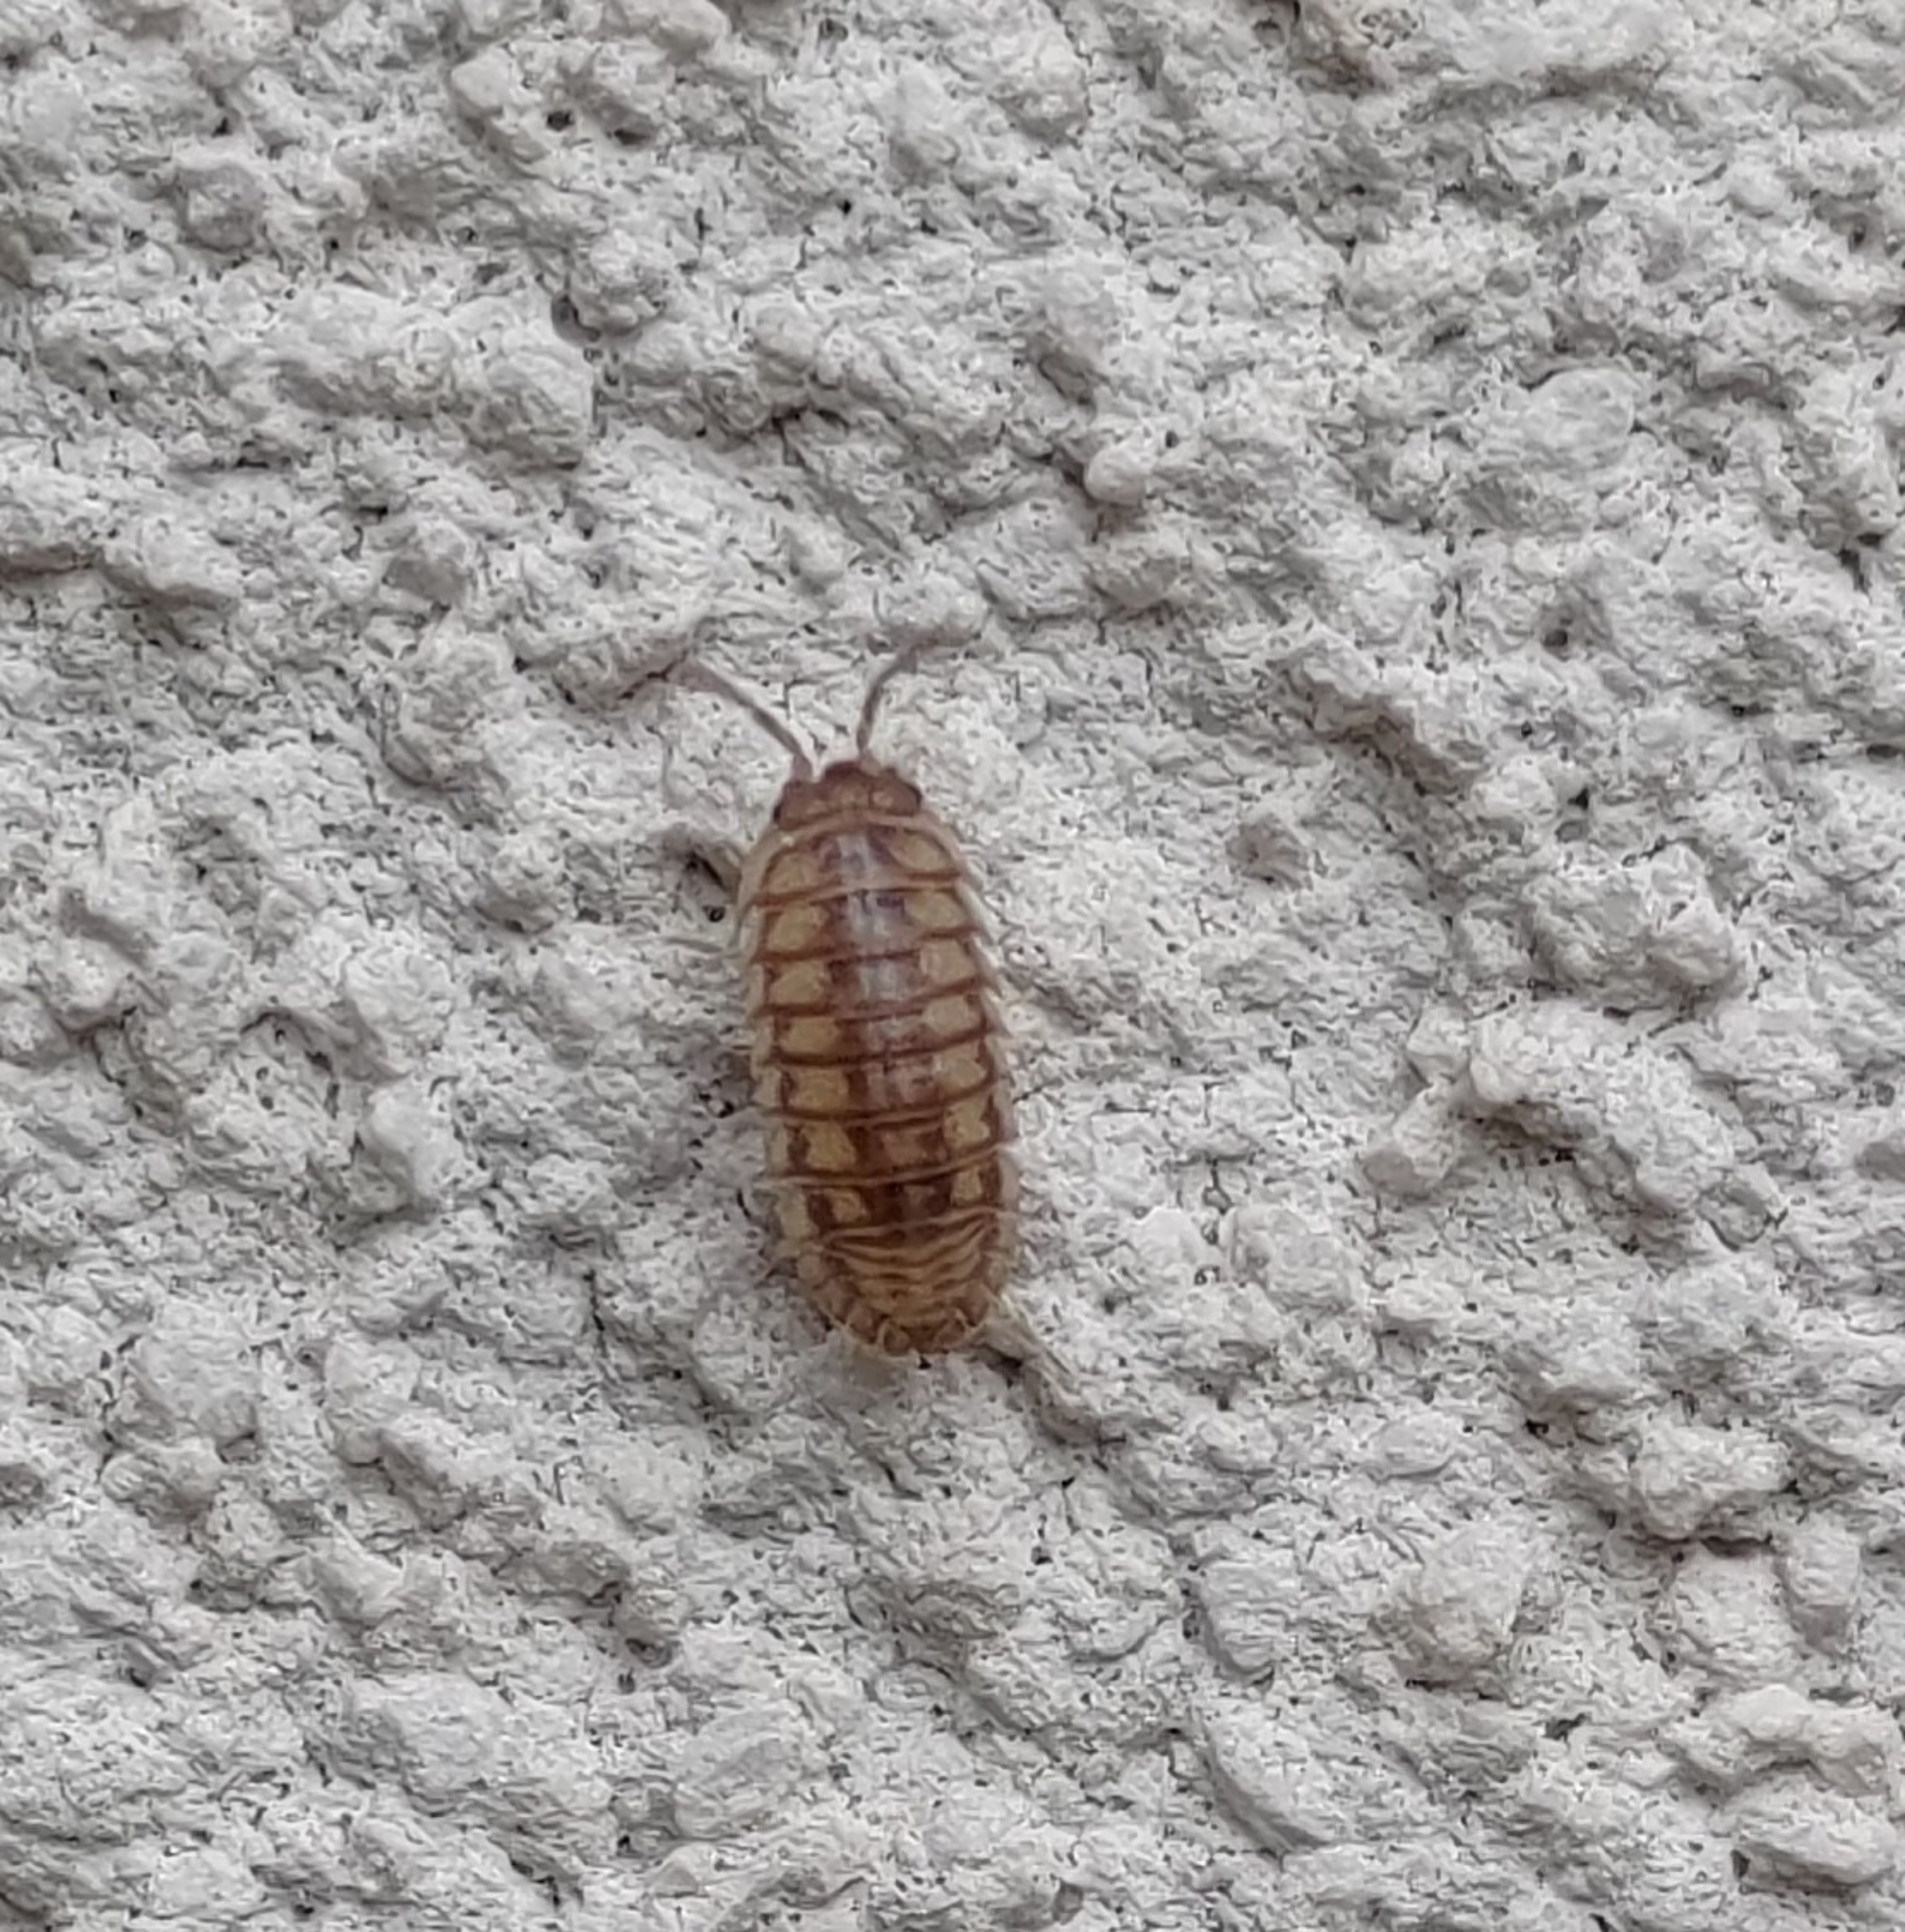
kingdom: Animalia
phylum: Arthropoda
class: Malacostraca
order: Isopoda
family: Armadillidiidae
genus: Armadillidium
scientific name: Armadillidium nasatum
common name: Isopod
